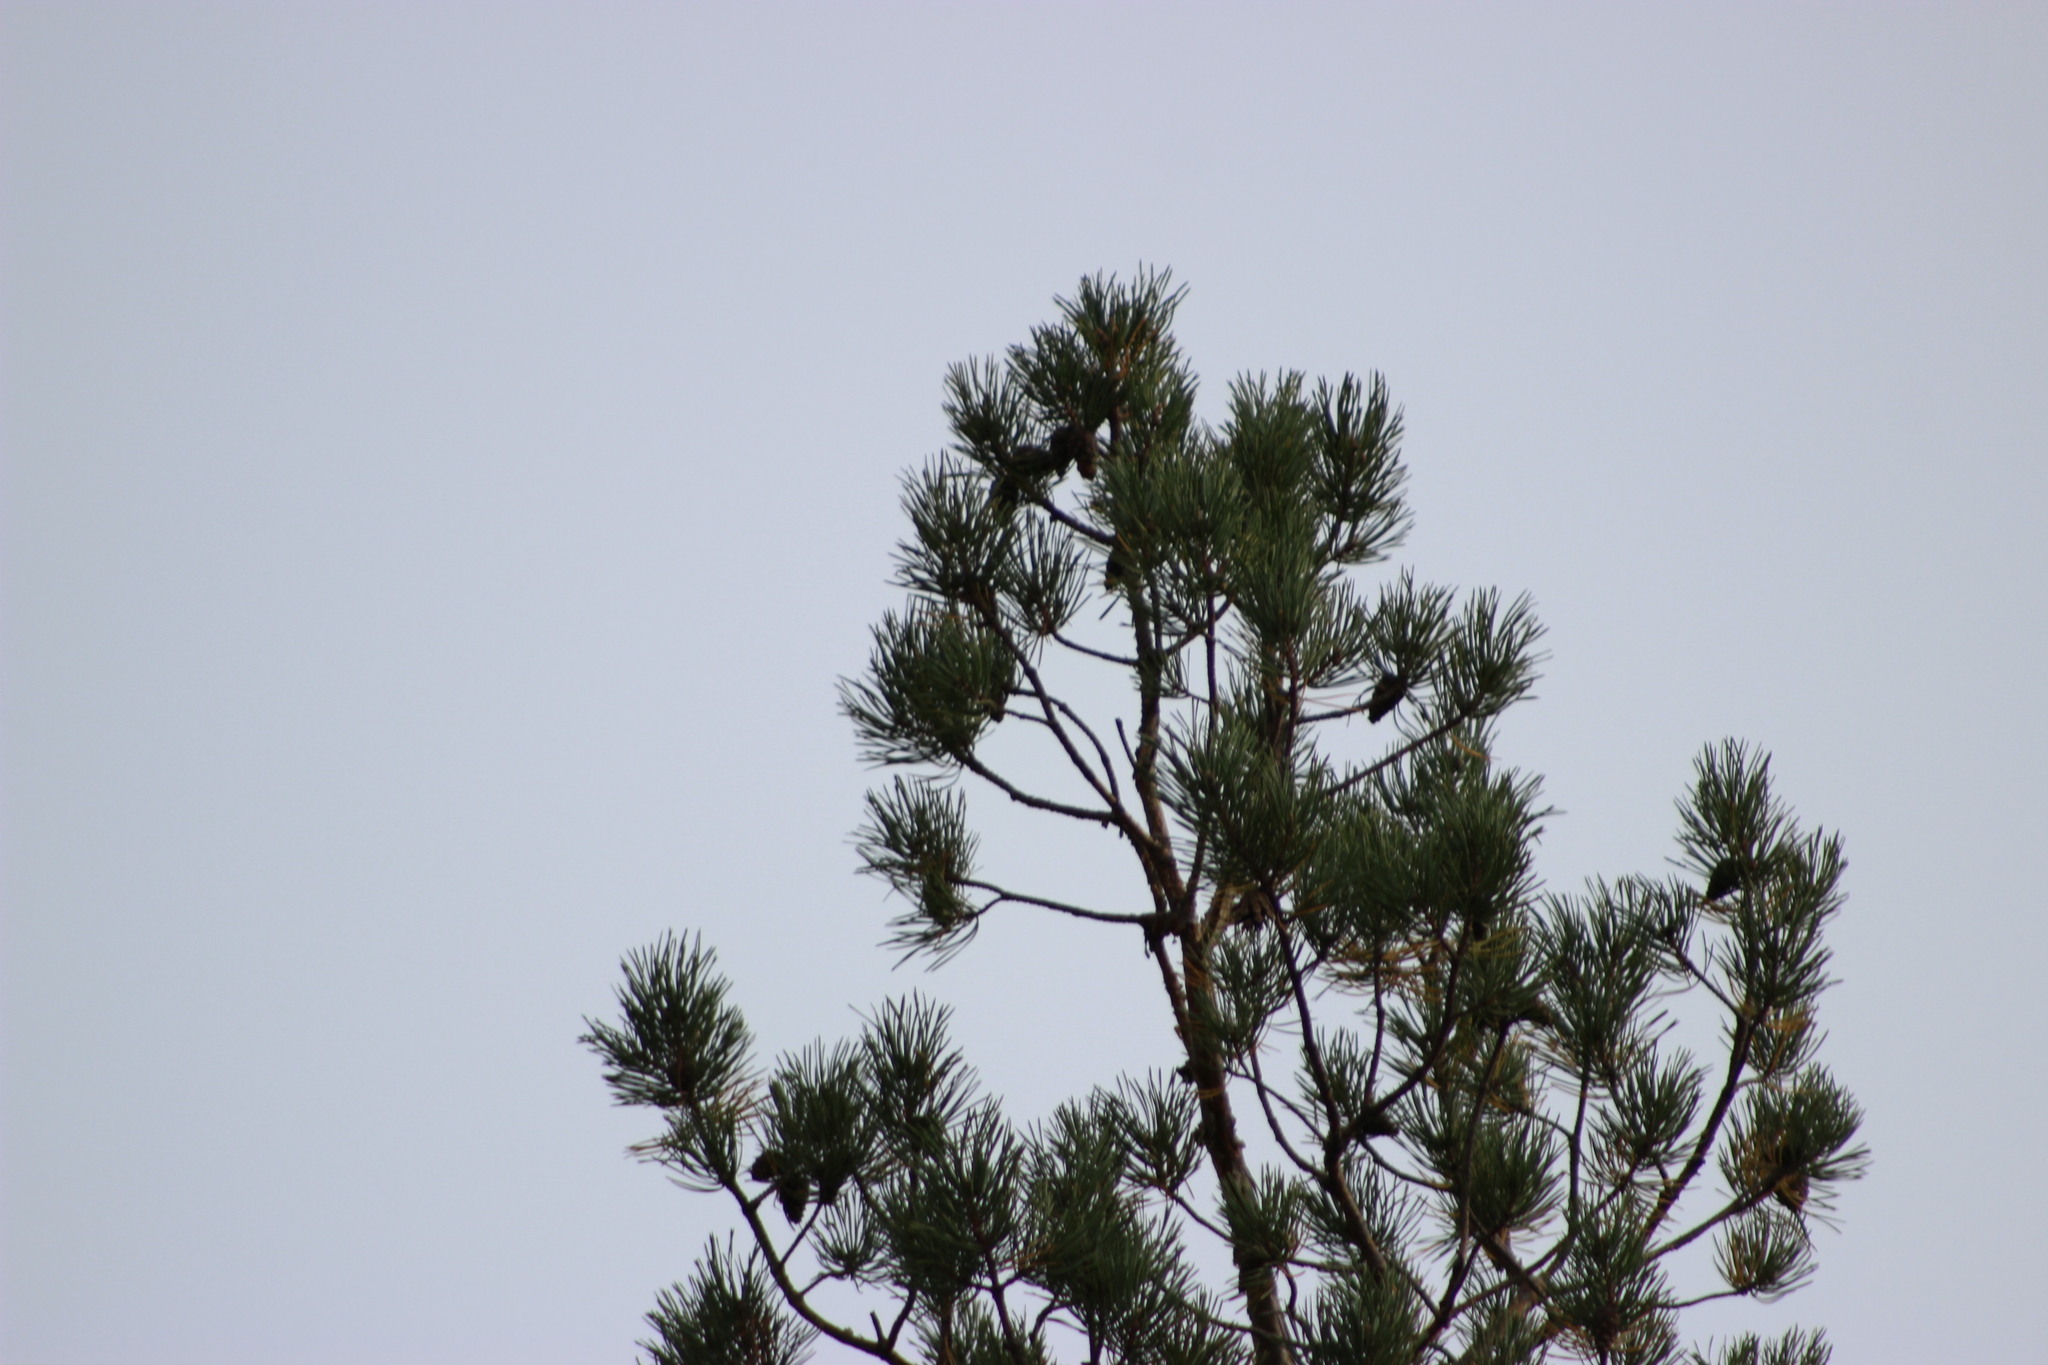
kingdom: Plantae
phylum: Tracheophyta
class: Pinopsida
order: Pinales
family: Pinaceae
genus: Pinus
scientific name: Pinus sylvestris
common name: Scots pine
